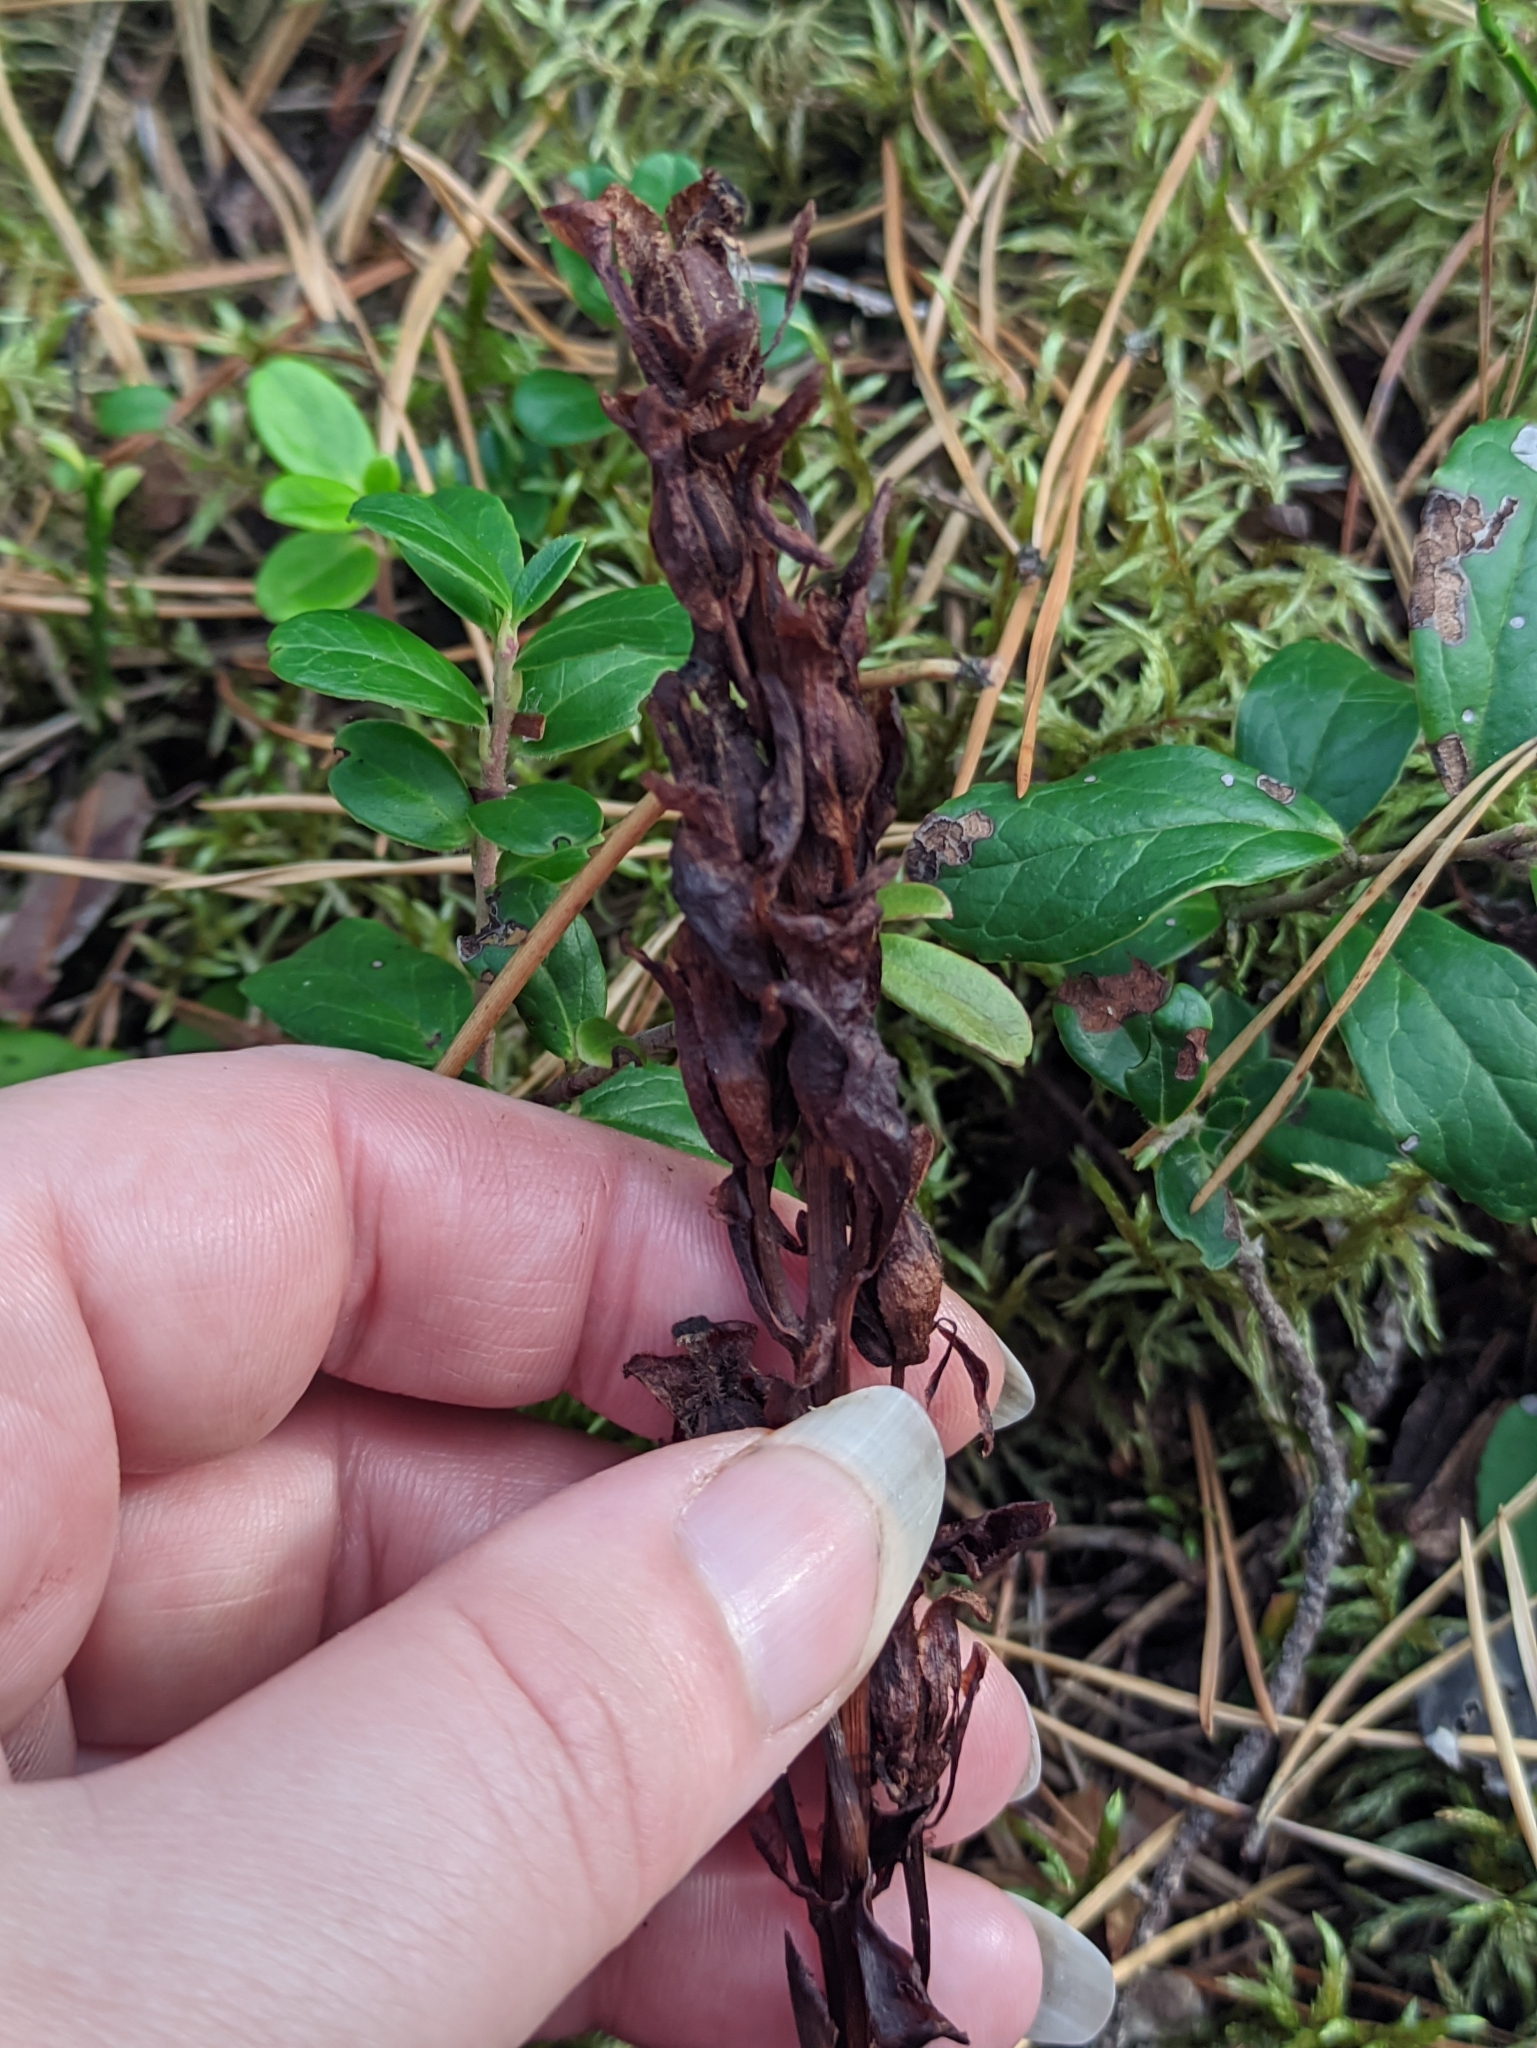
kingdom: Plantae
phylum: Tracheophyta
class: Magnoliopsida
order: Ericales
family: Ericaceae
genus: Hypopitys
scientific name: Hypopitys monotropa
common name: Yellow bird's-nest
